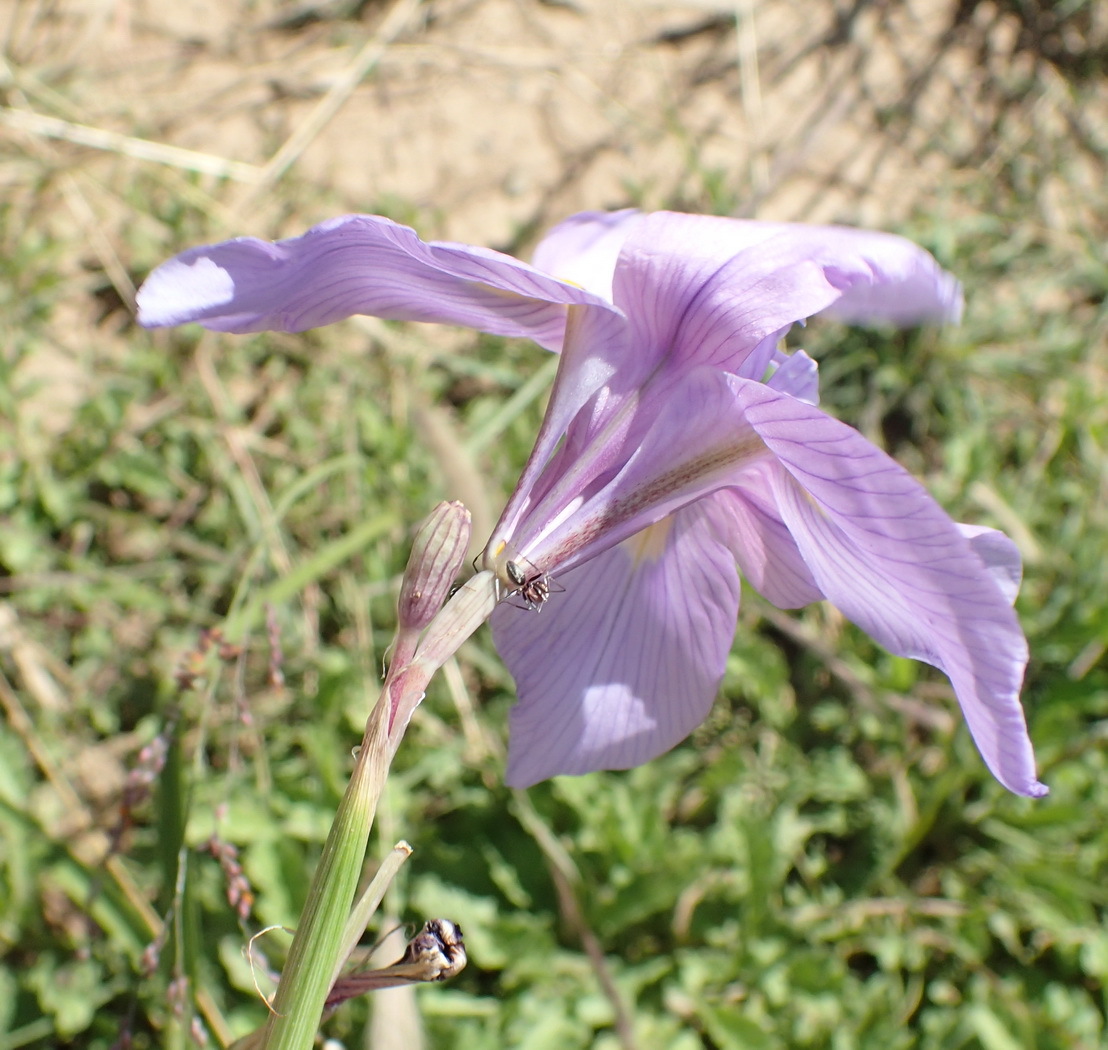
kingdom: Plantae
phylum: Tracheophyta
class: Liliopsida
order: Asparagales
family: Iridaceae
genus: Moraea
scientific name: Moraea polystachya
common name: Blue-tulip
